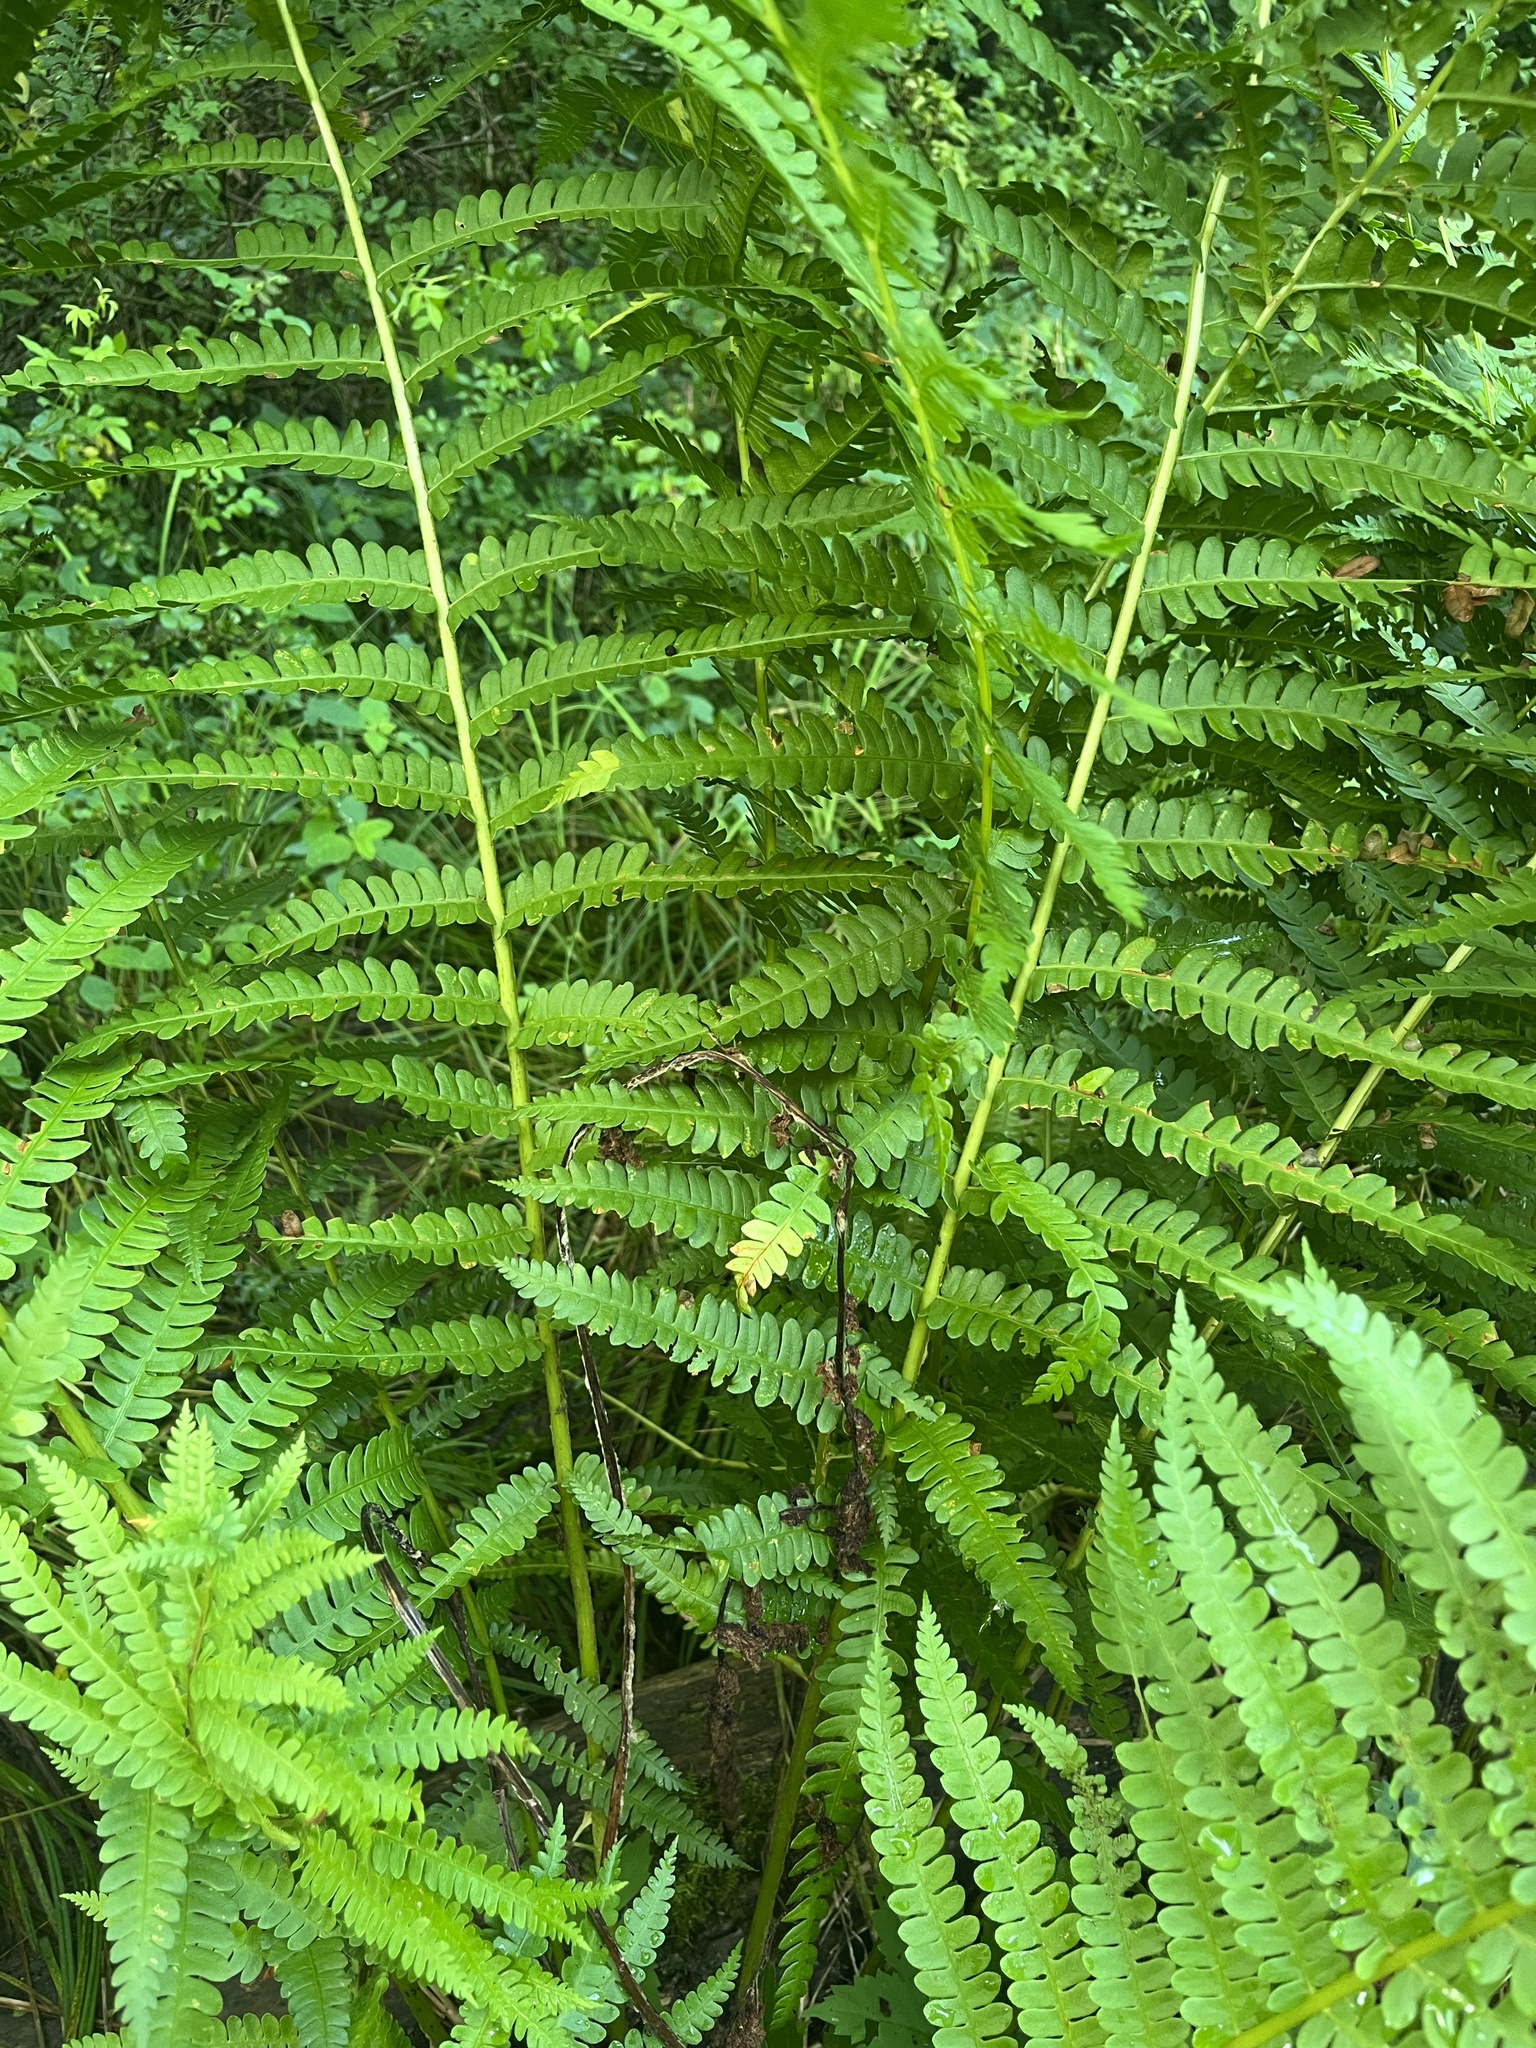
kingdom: Plantae
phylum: Tracheophyta
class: Polypodiopsida
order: Osmundales
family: Osmundaceae
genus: Osmundastrum
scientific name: Osmundastrum cinnamomeum
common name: Cinnamon fern
